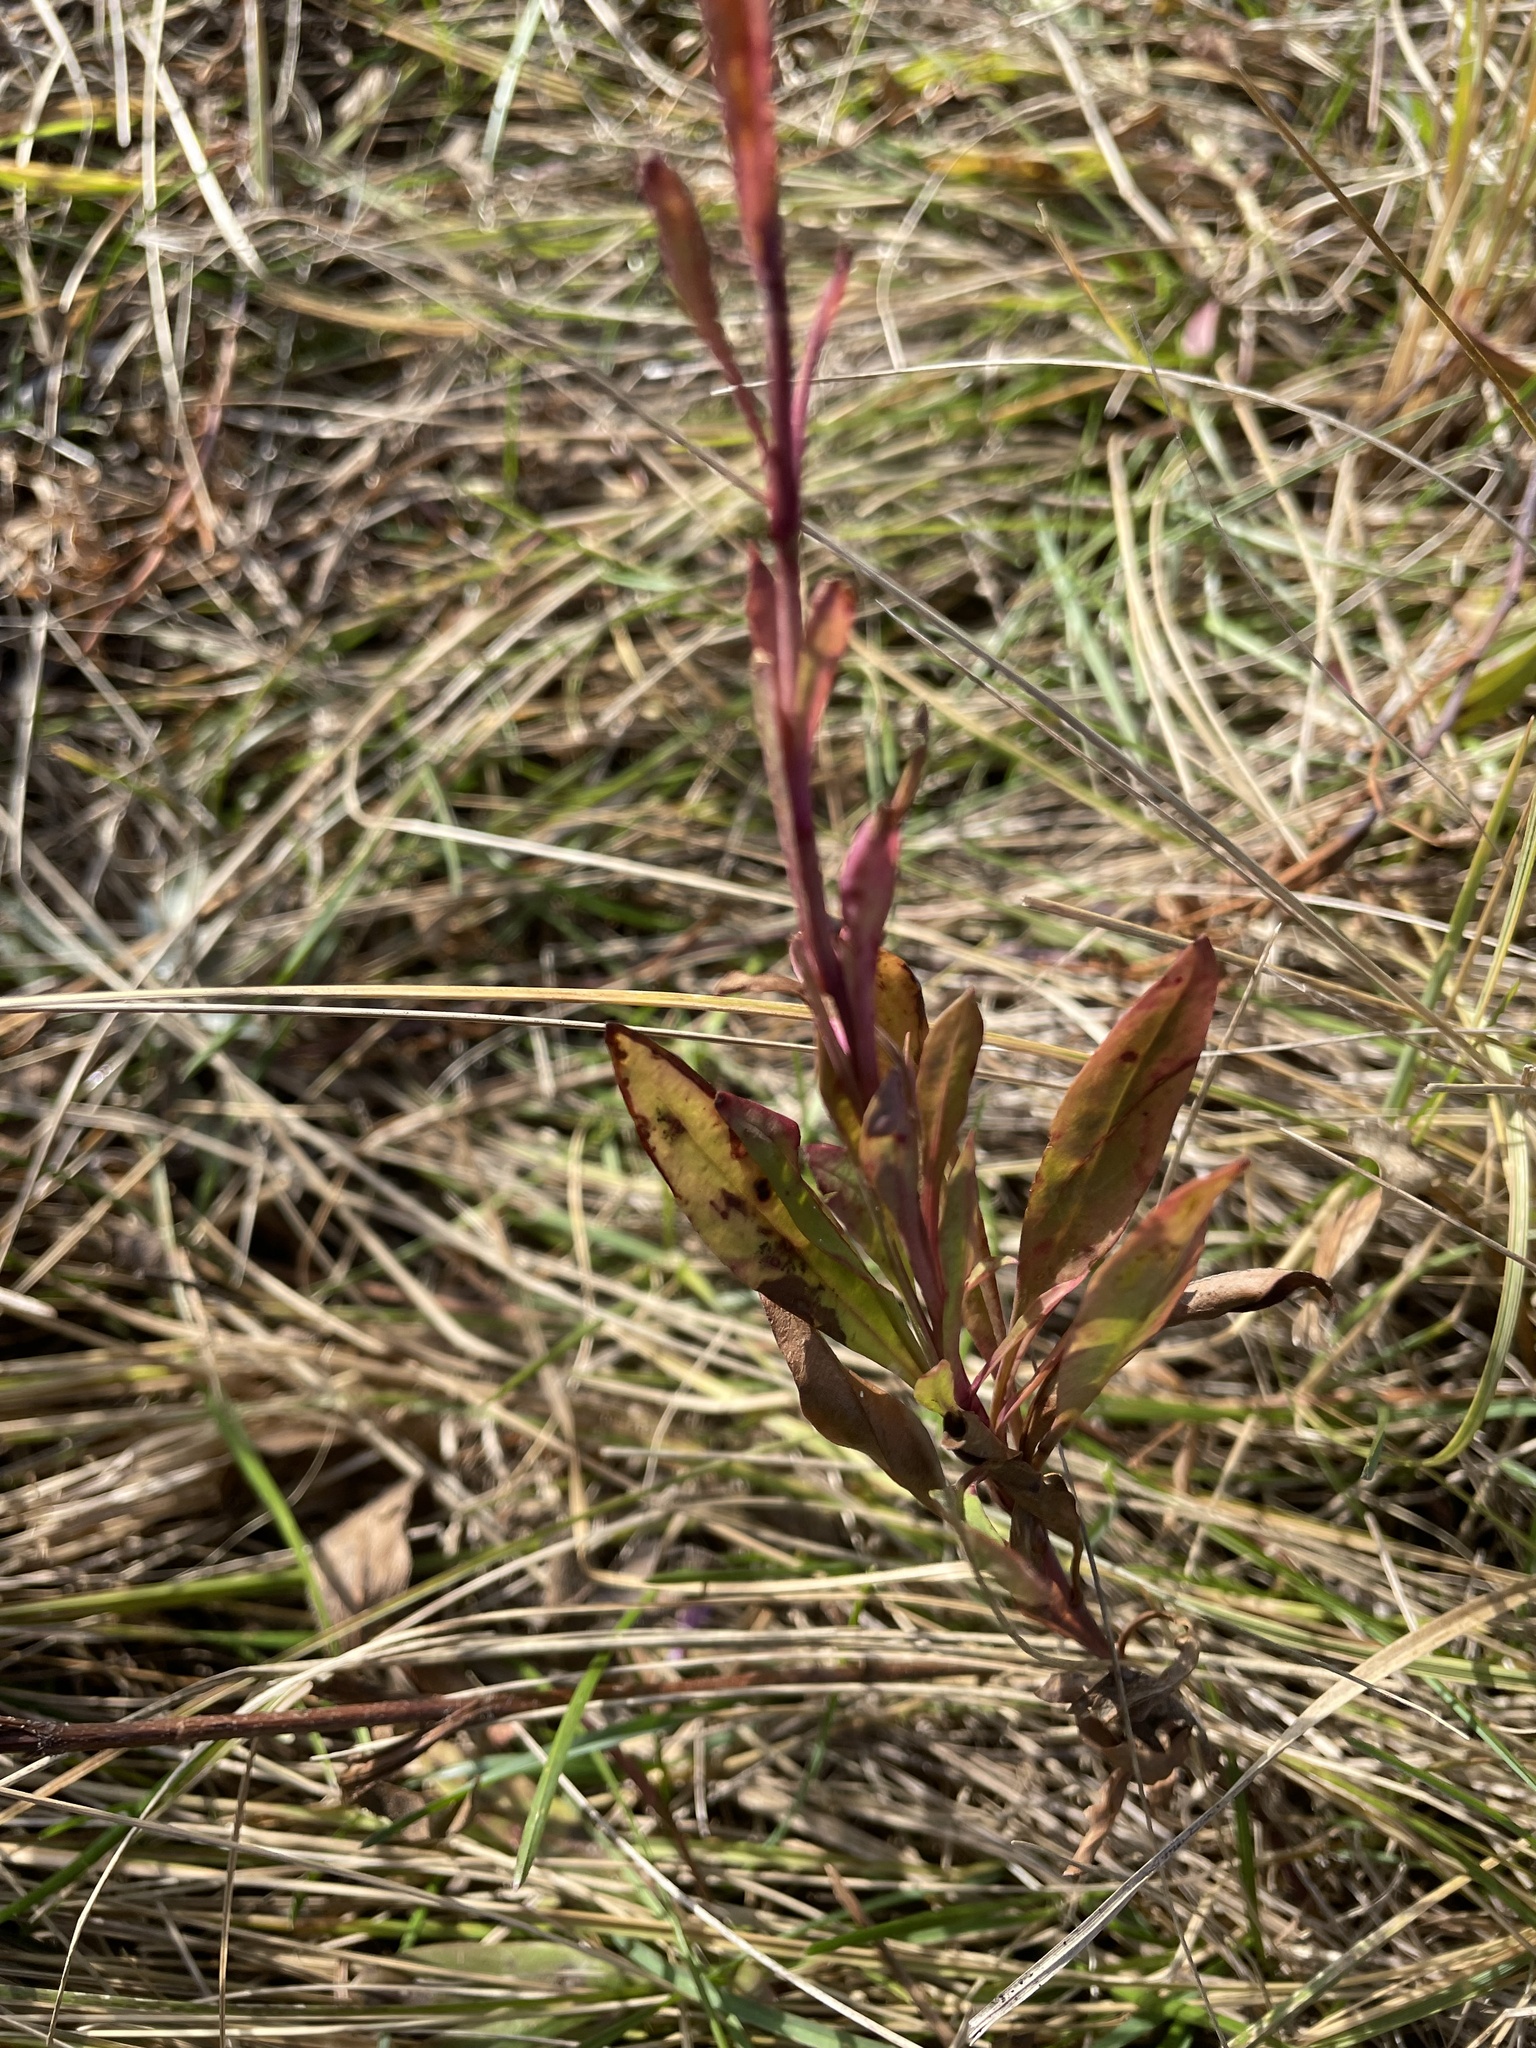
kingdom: Plantae
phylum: Tracheophyta
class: Magnoliopsida
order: Lamiales
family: Plantaginaceae
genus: Penstemon
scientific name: Penstemon procerus
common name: Small-flower penstemon
